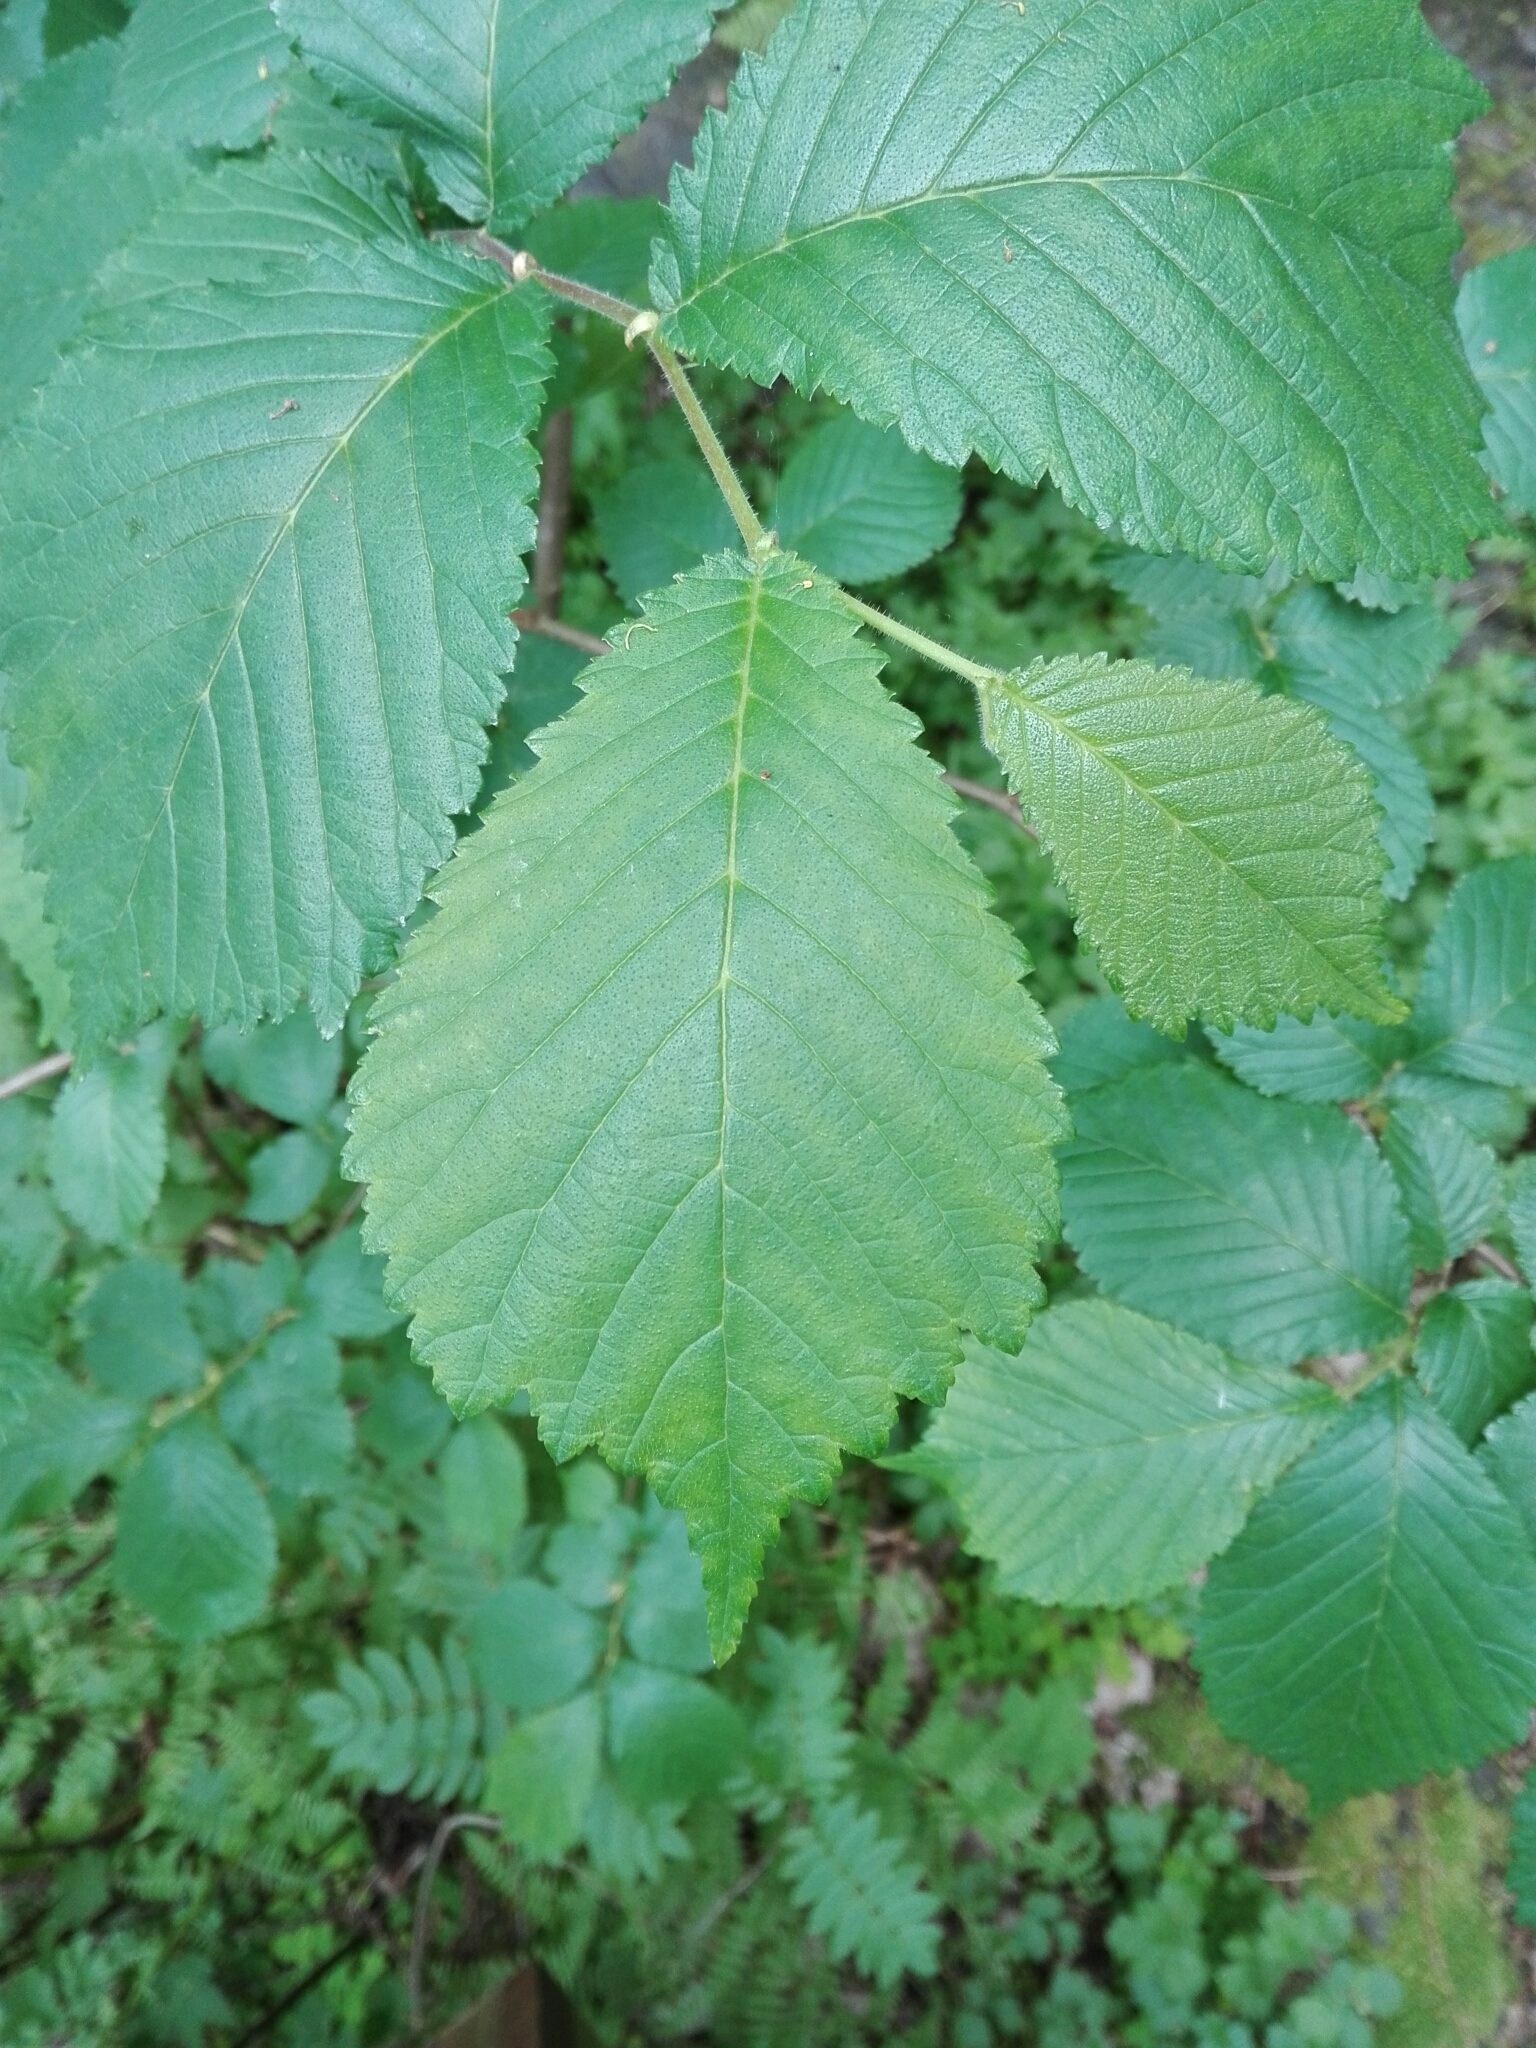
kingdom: Plantae
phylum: Tracheophyta
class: Magnoliopsida
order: Rosales
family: Ulmaceae
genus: Ulmus
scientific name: Ulmus glabra
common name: Wych elm
